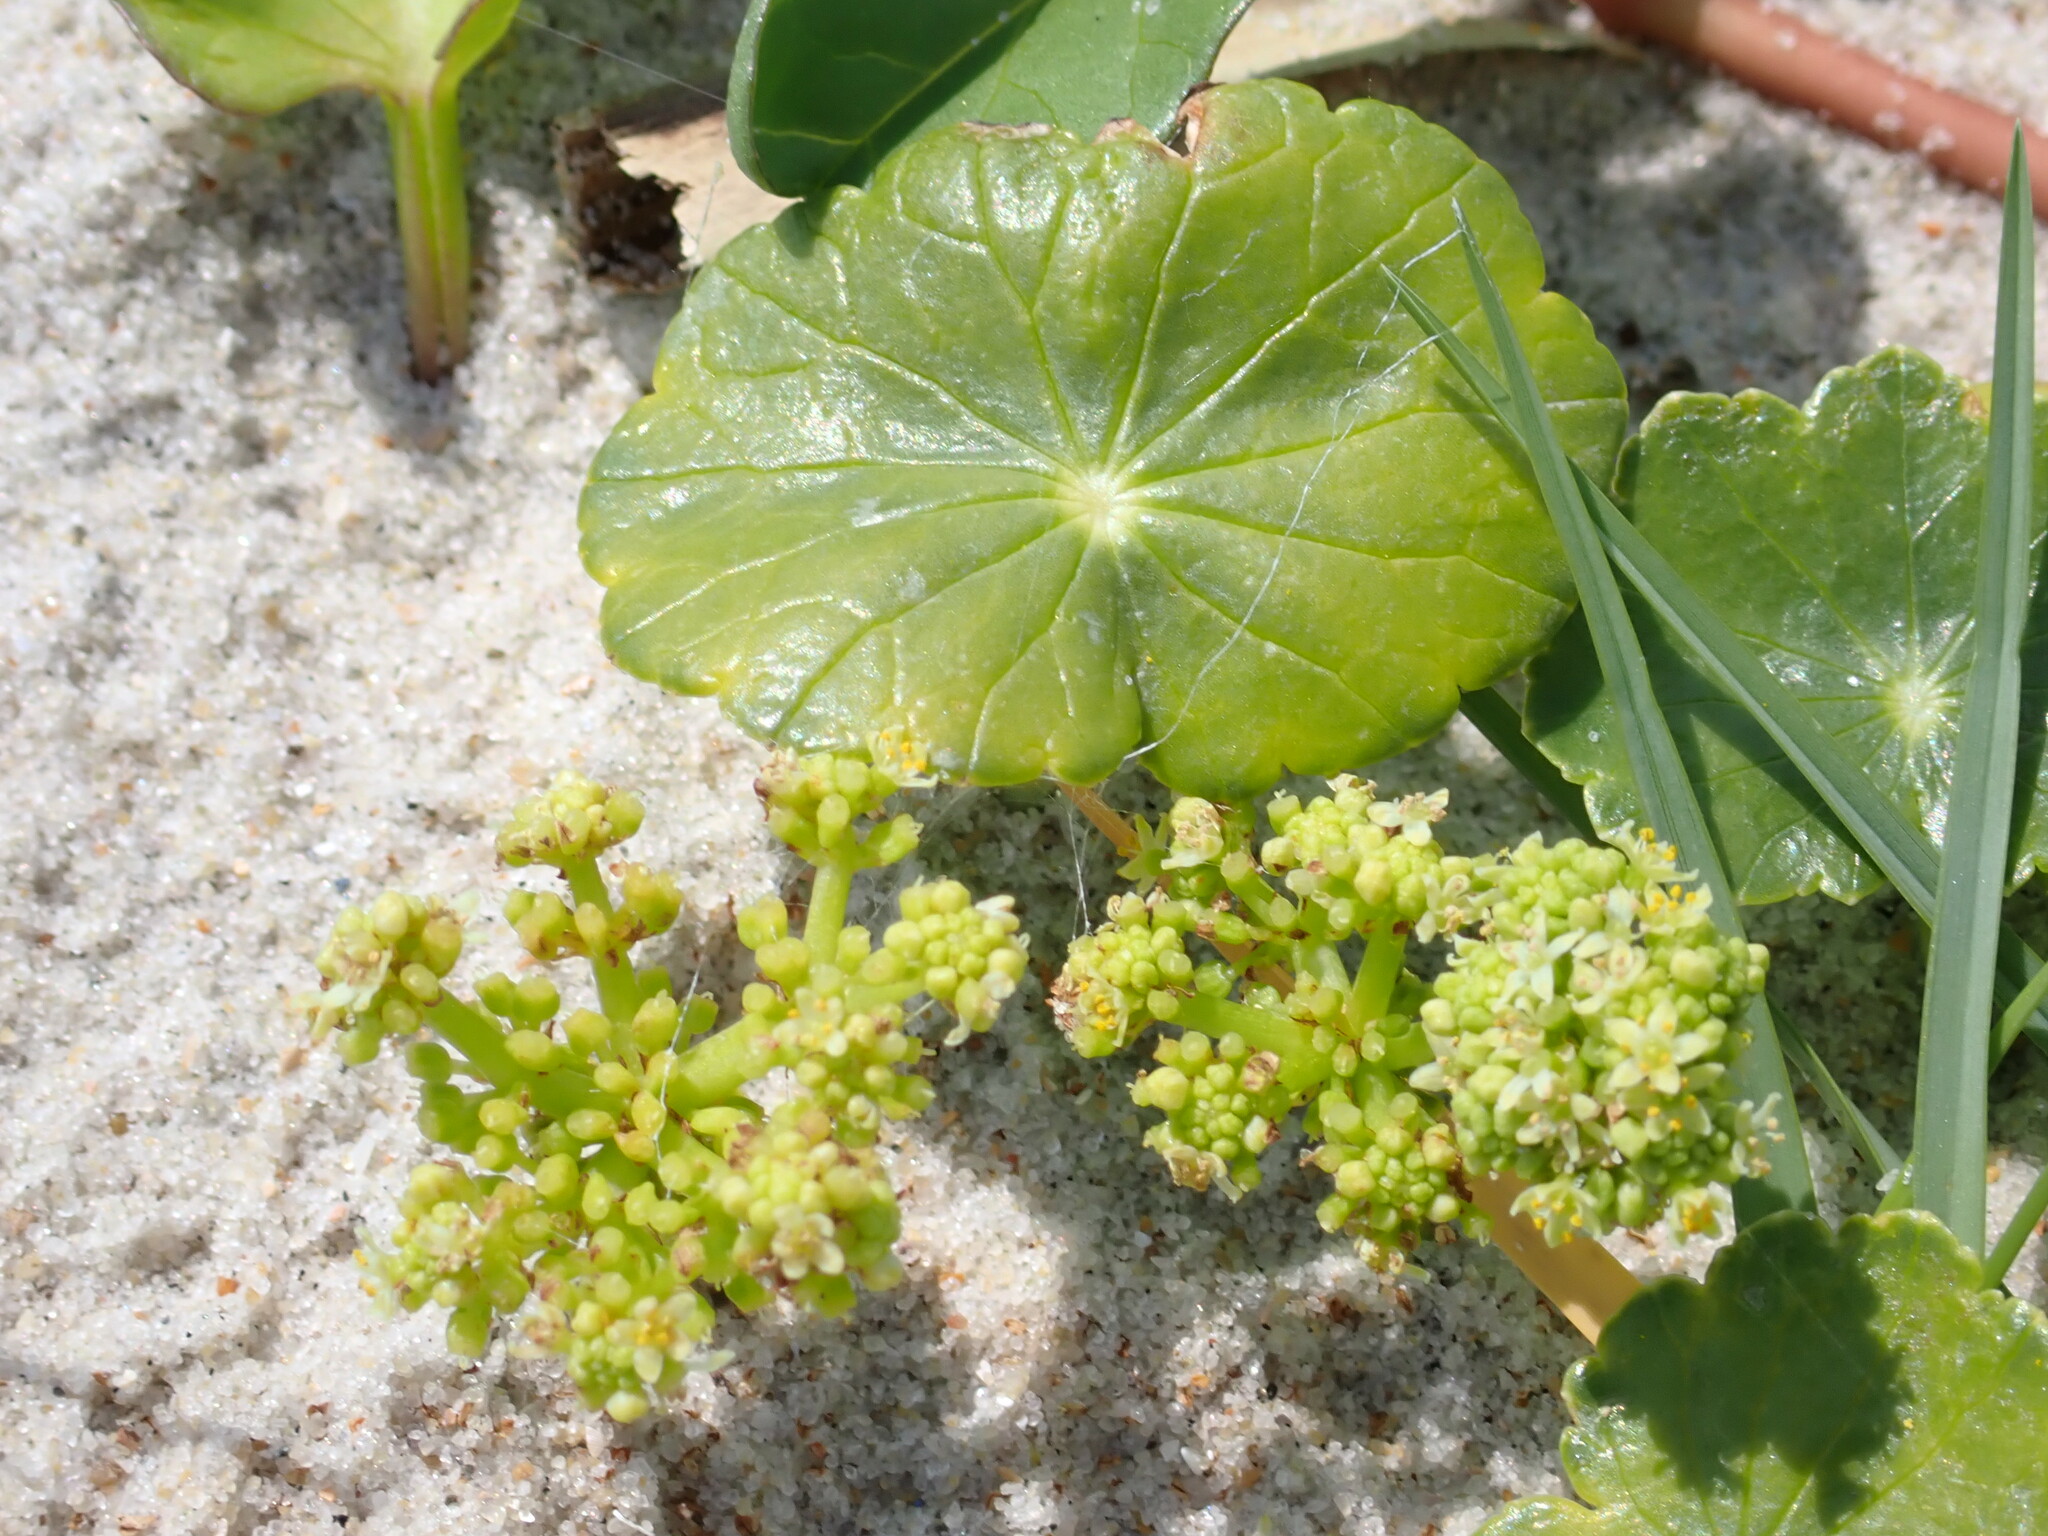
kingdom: Plantae
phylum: Tracheophyta
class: Magnoliopsida
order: Apiales
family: Araliaceae
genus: Hydrocotyle
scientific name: Hydrocotyle bonariensis
